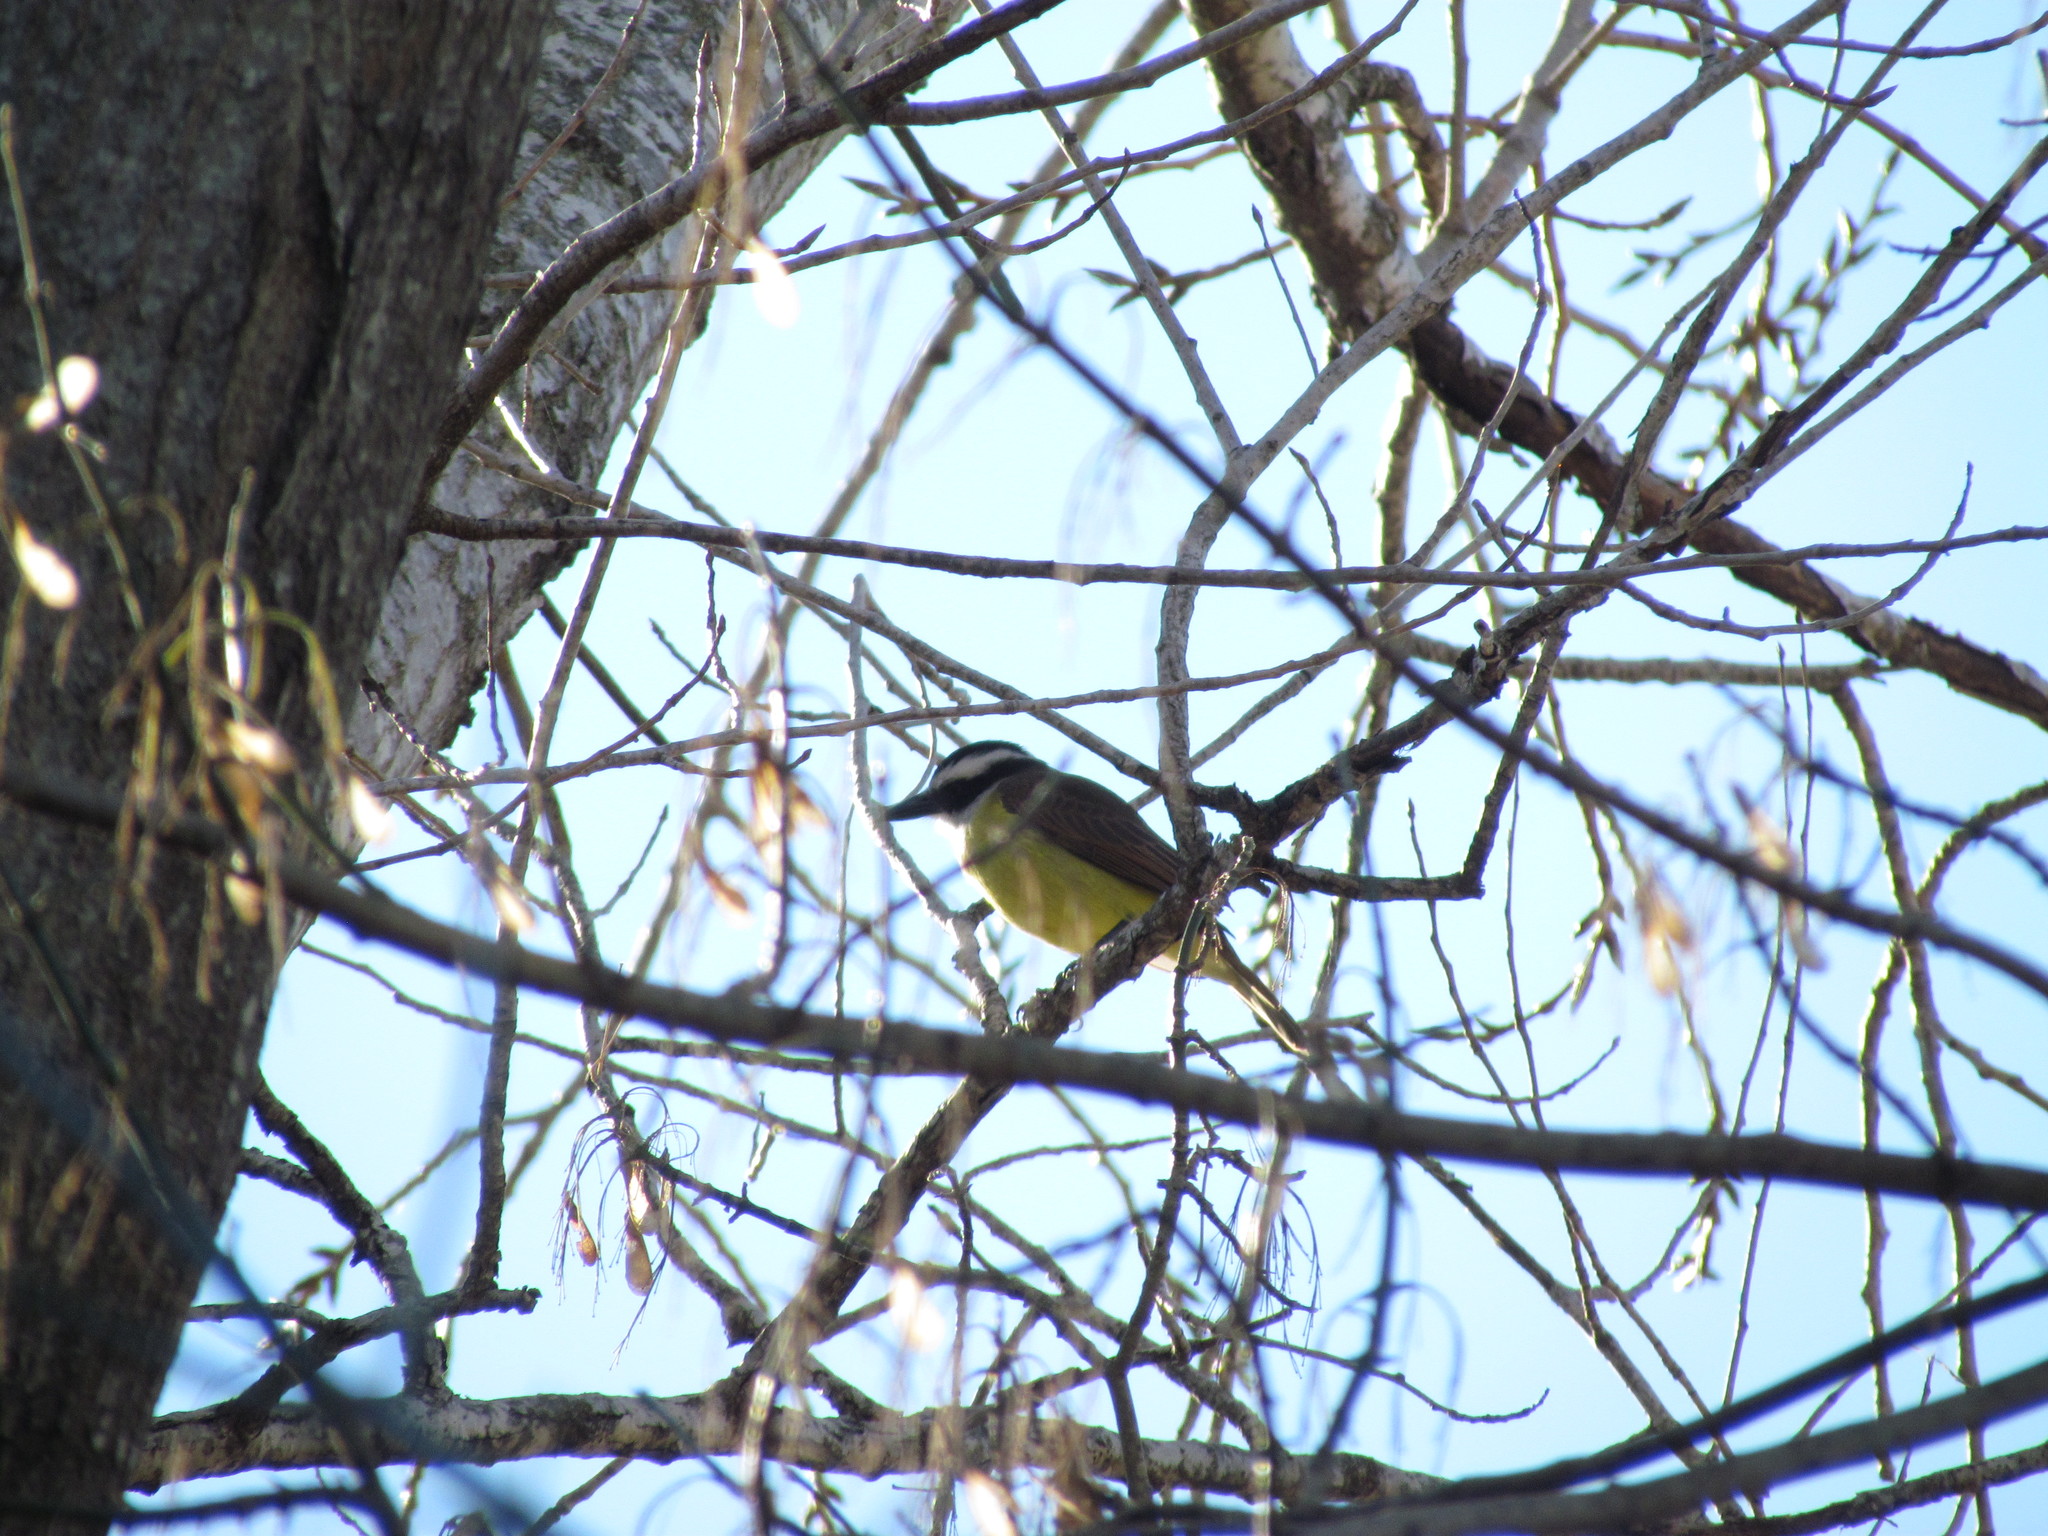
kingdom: Animalia
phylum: Chordata
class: Aves
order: Passeriformes
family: Tyrannidae
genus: Pitangus
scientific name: Pitangus sulphuratus
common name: Great kiskadee
